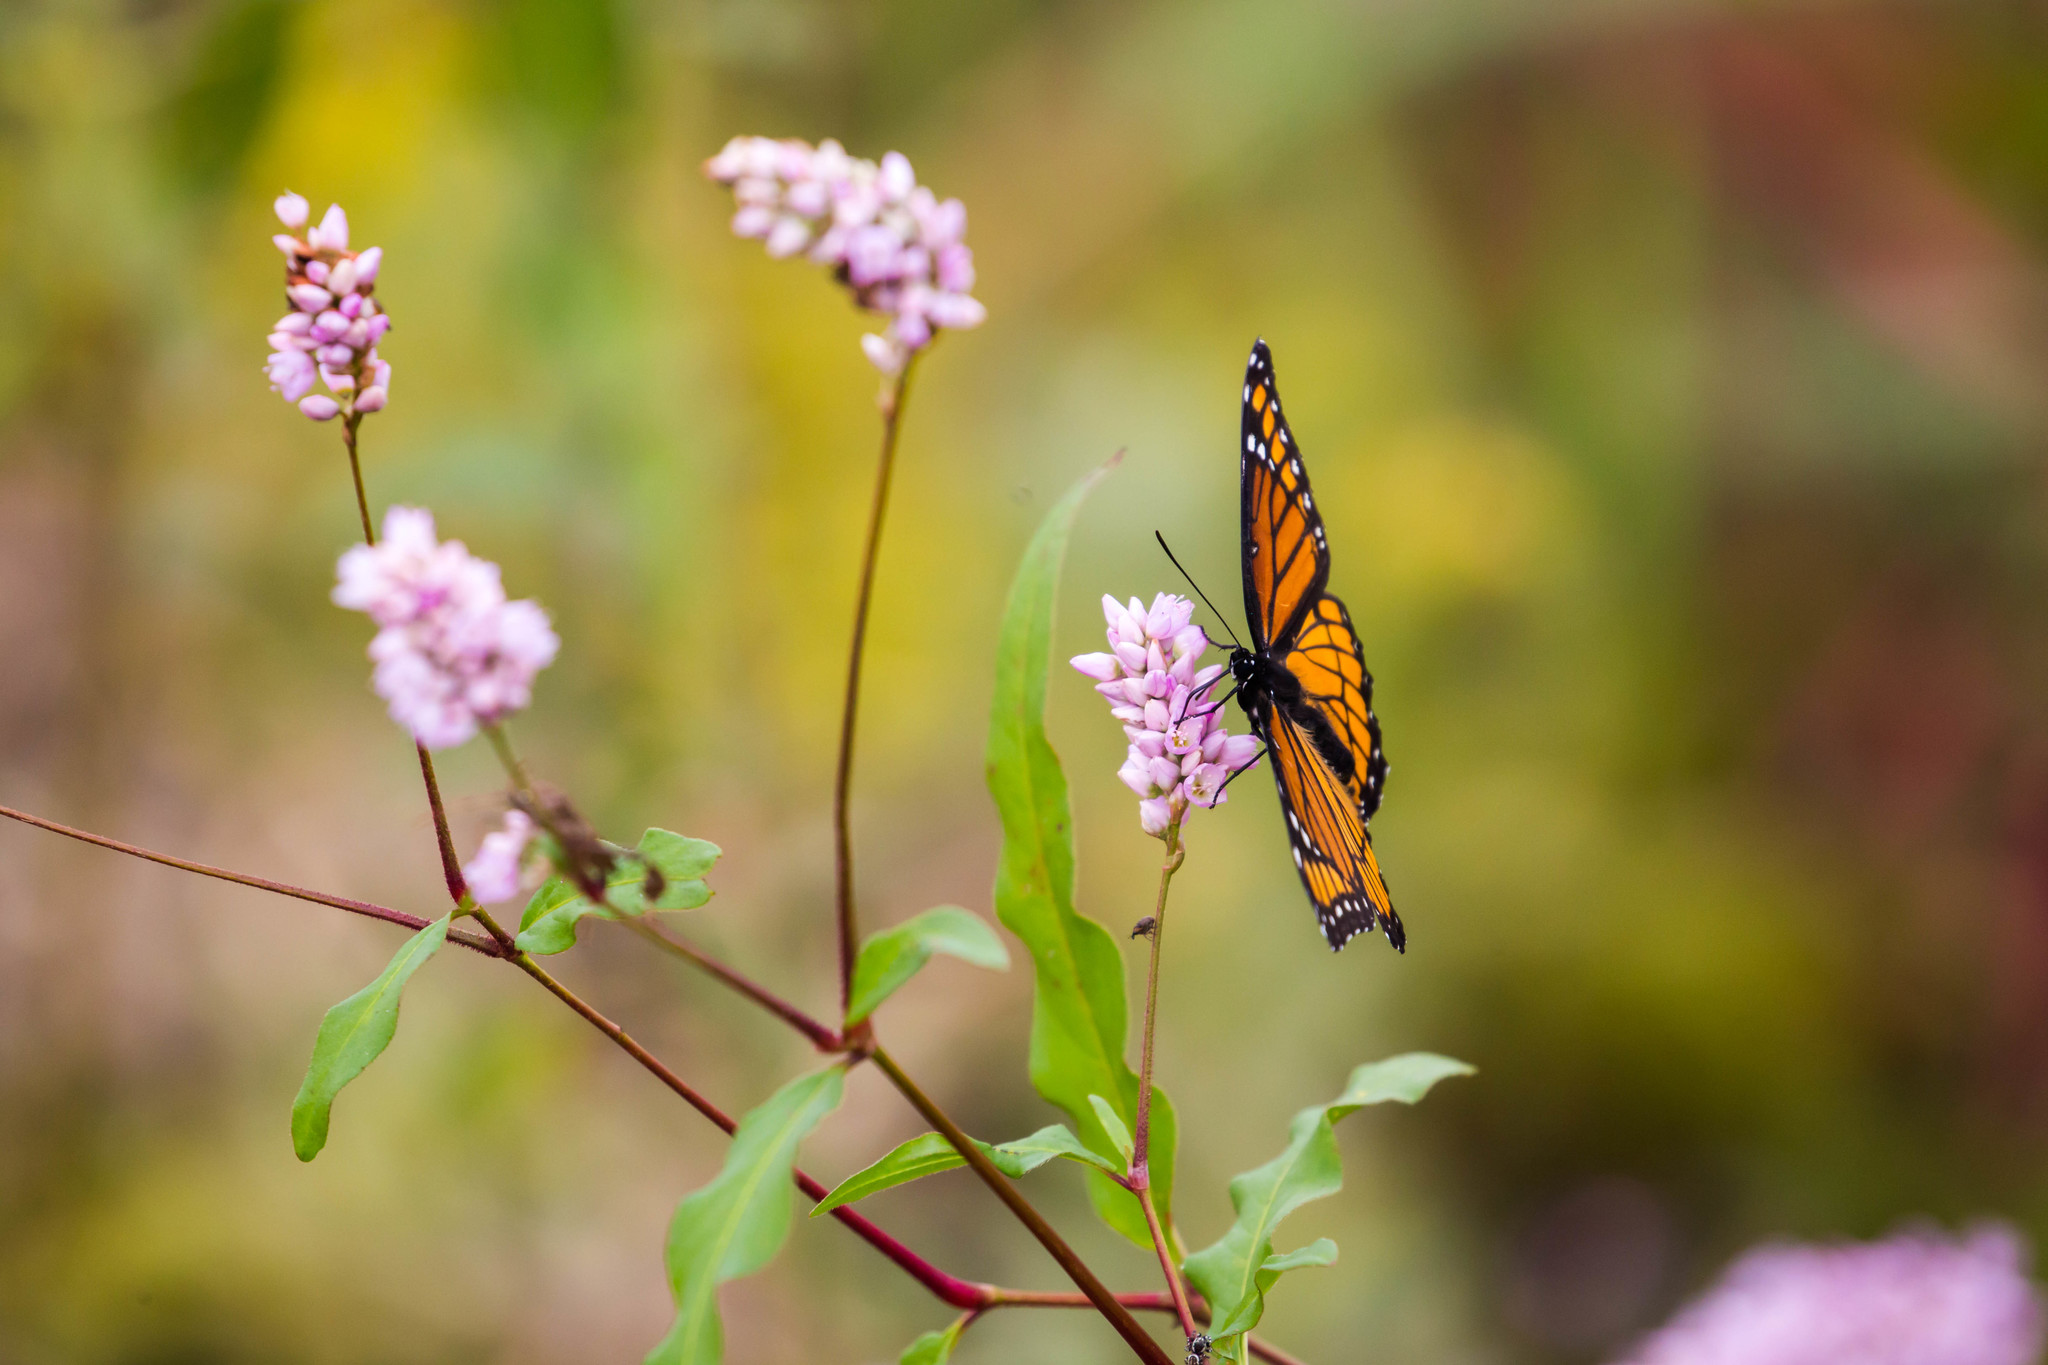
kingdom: Animalia
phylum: Arthropoda
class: Insecta
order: Lepidoptera
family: Nymphalidae
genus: Limenitis
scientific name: Limenitis archippus
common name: Viceroy
